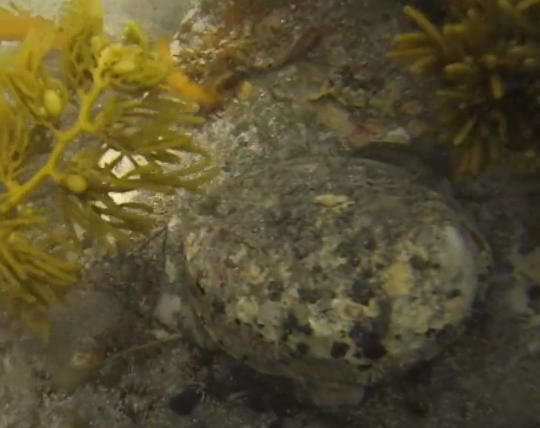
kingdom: Animalia
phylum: Mollusca
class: Gastropoda
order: Lepetellida
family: Haliotidae
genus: Haliotis
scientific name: Haliotis iris
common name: Abalone
